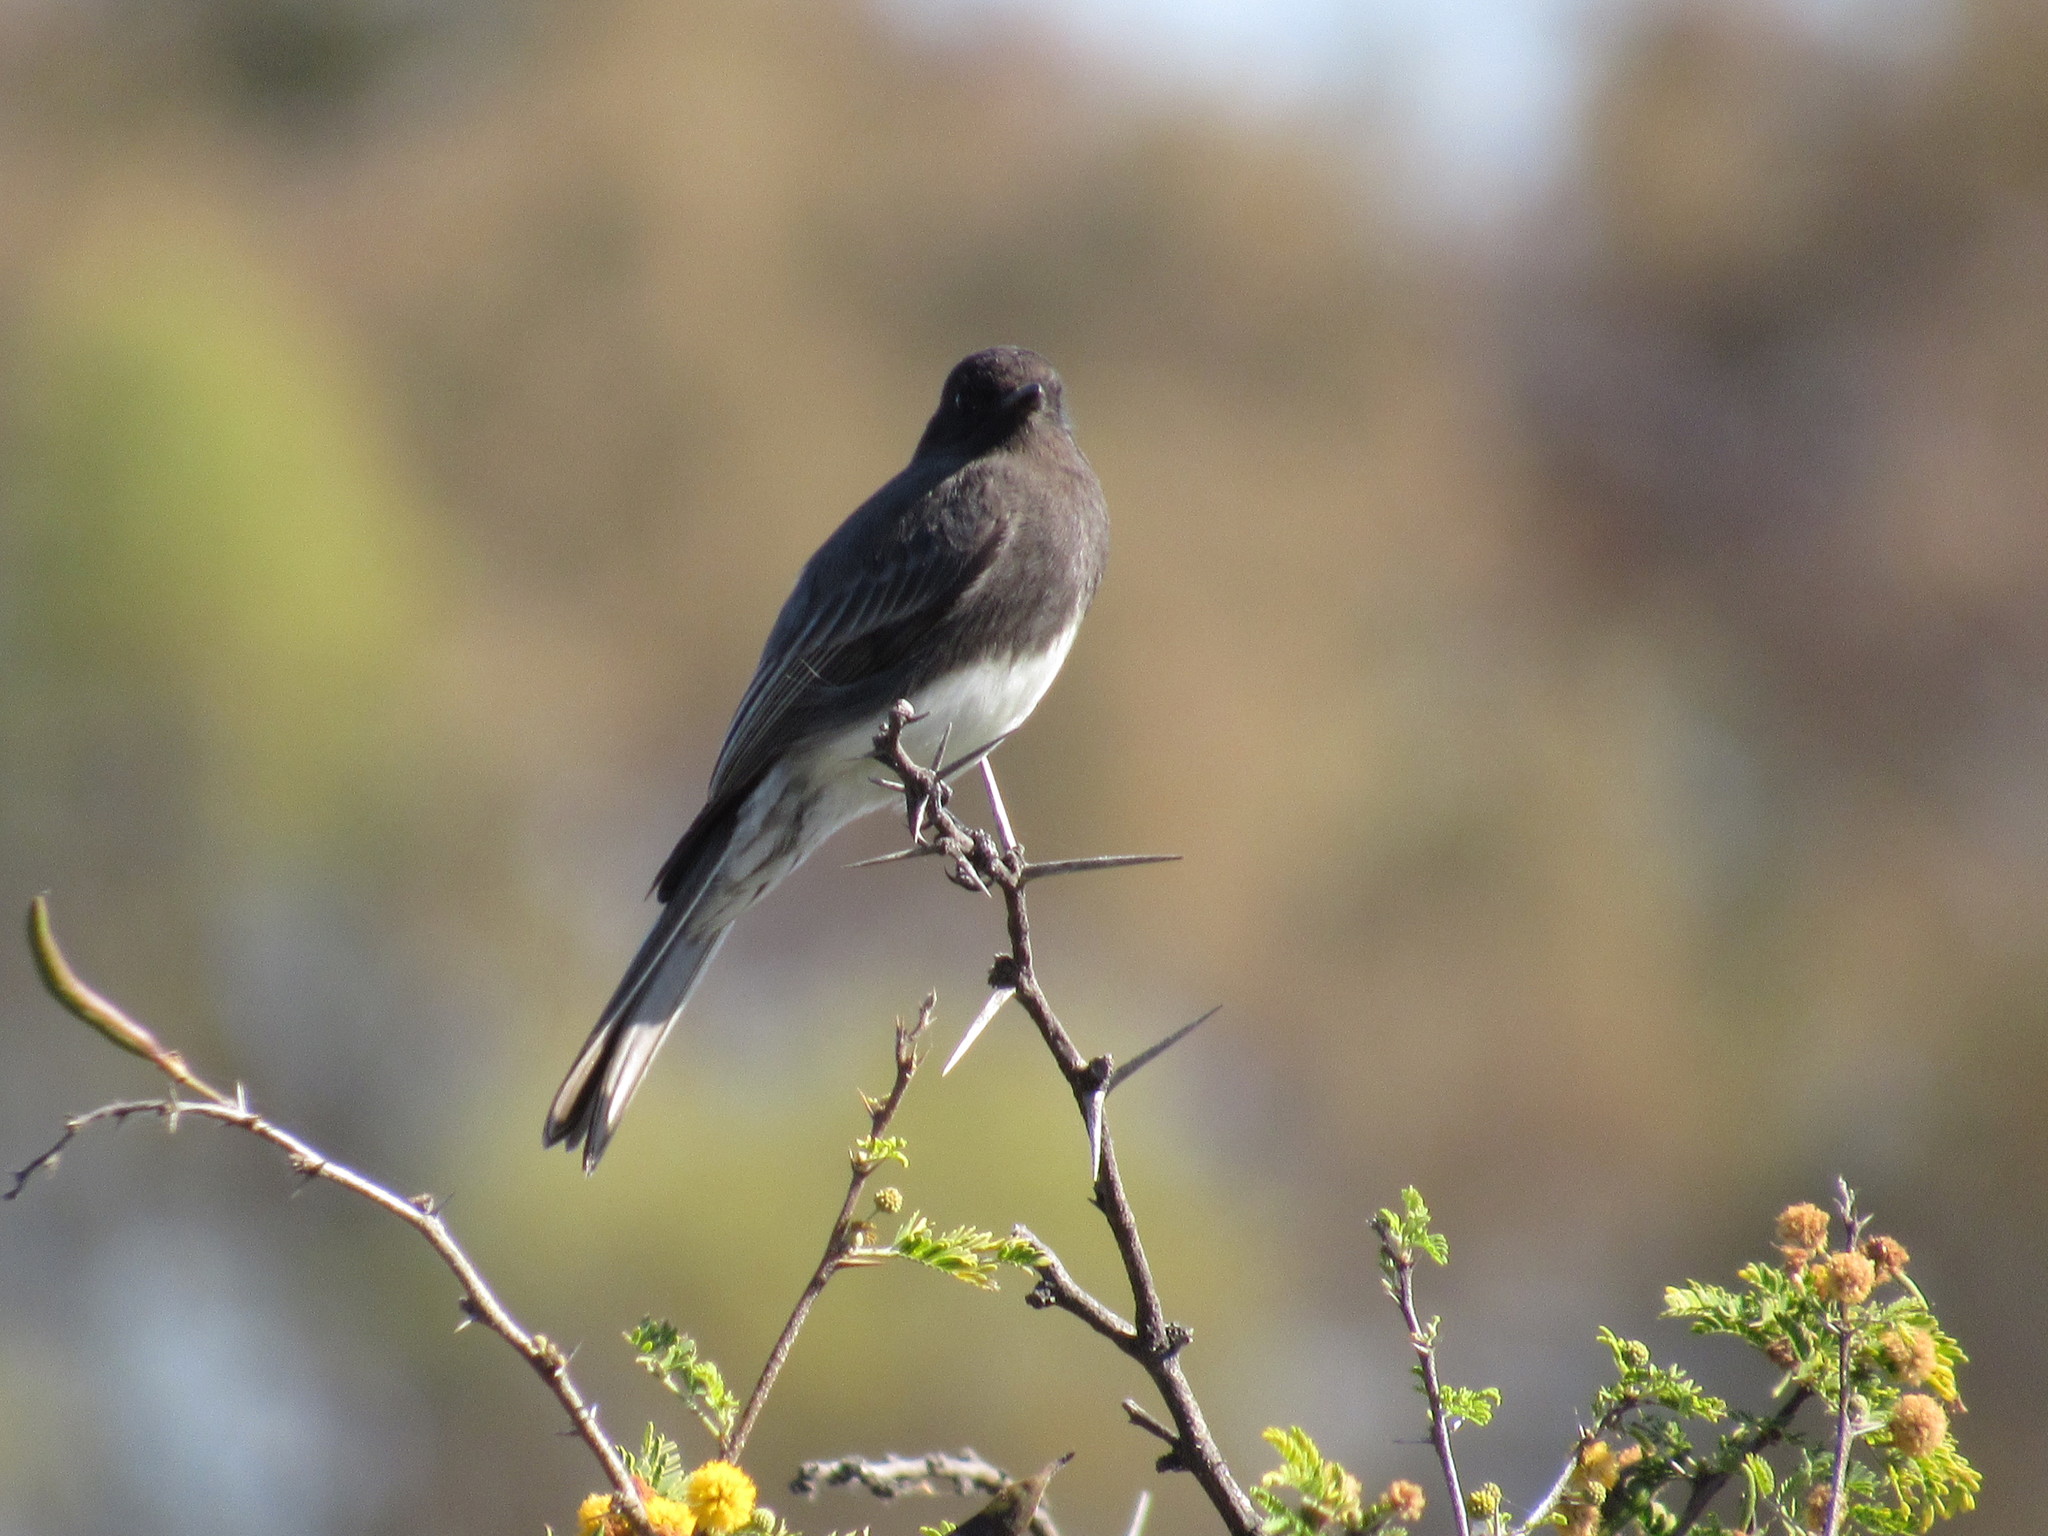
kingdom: Animalia
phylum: Chordata
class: Aves
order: Passeriformes
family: Tyrannidae
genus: Sayornis
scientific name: Sayornis nigricans
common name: Black phoebe
